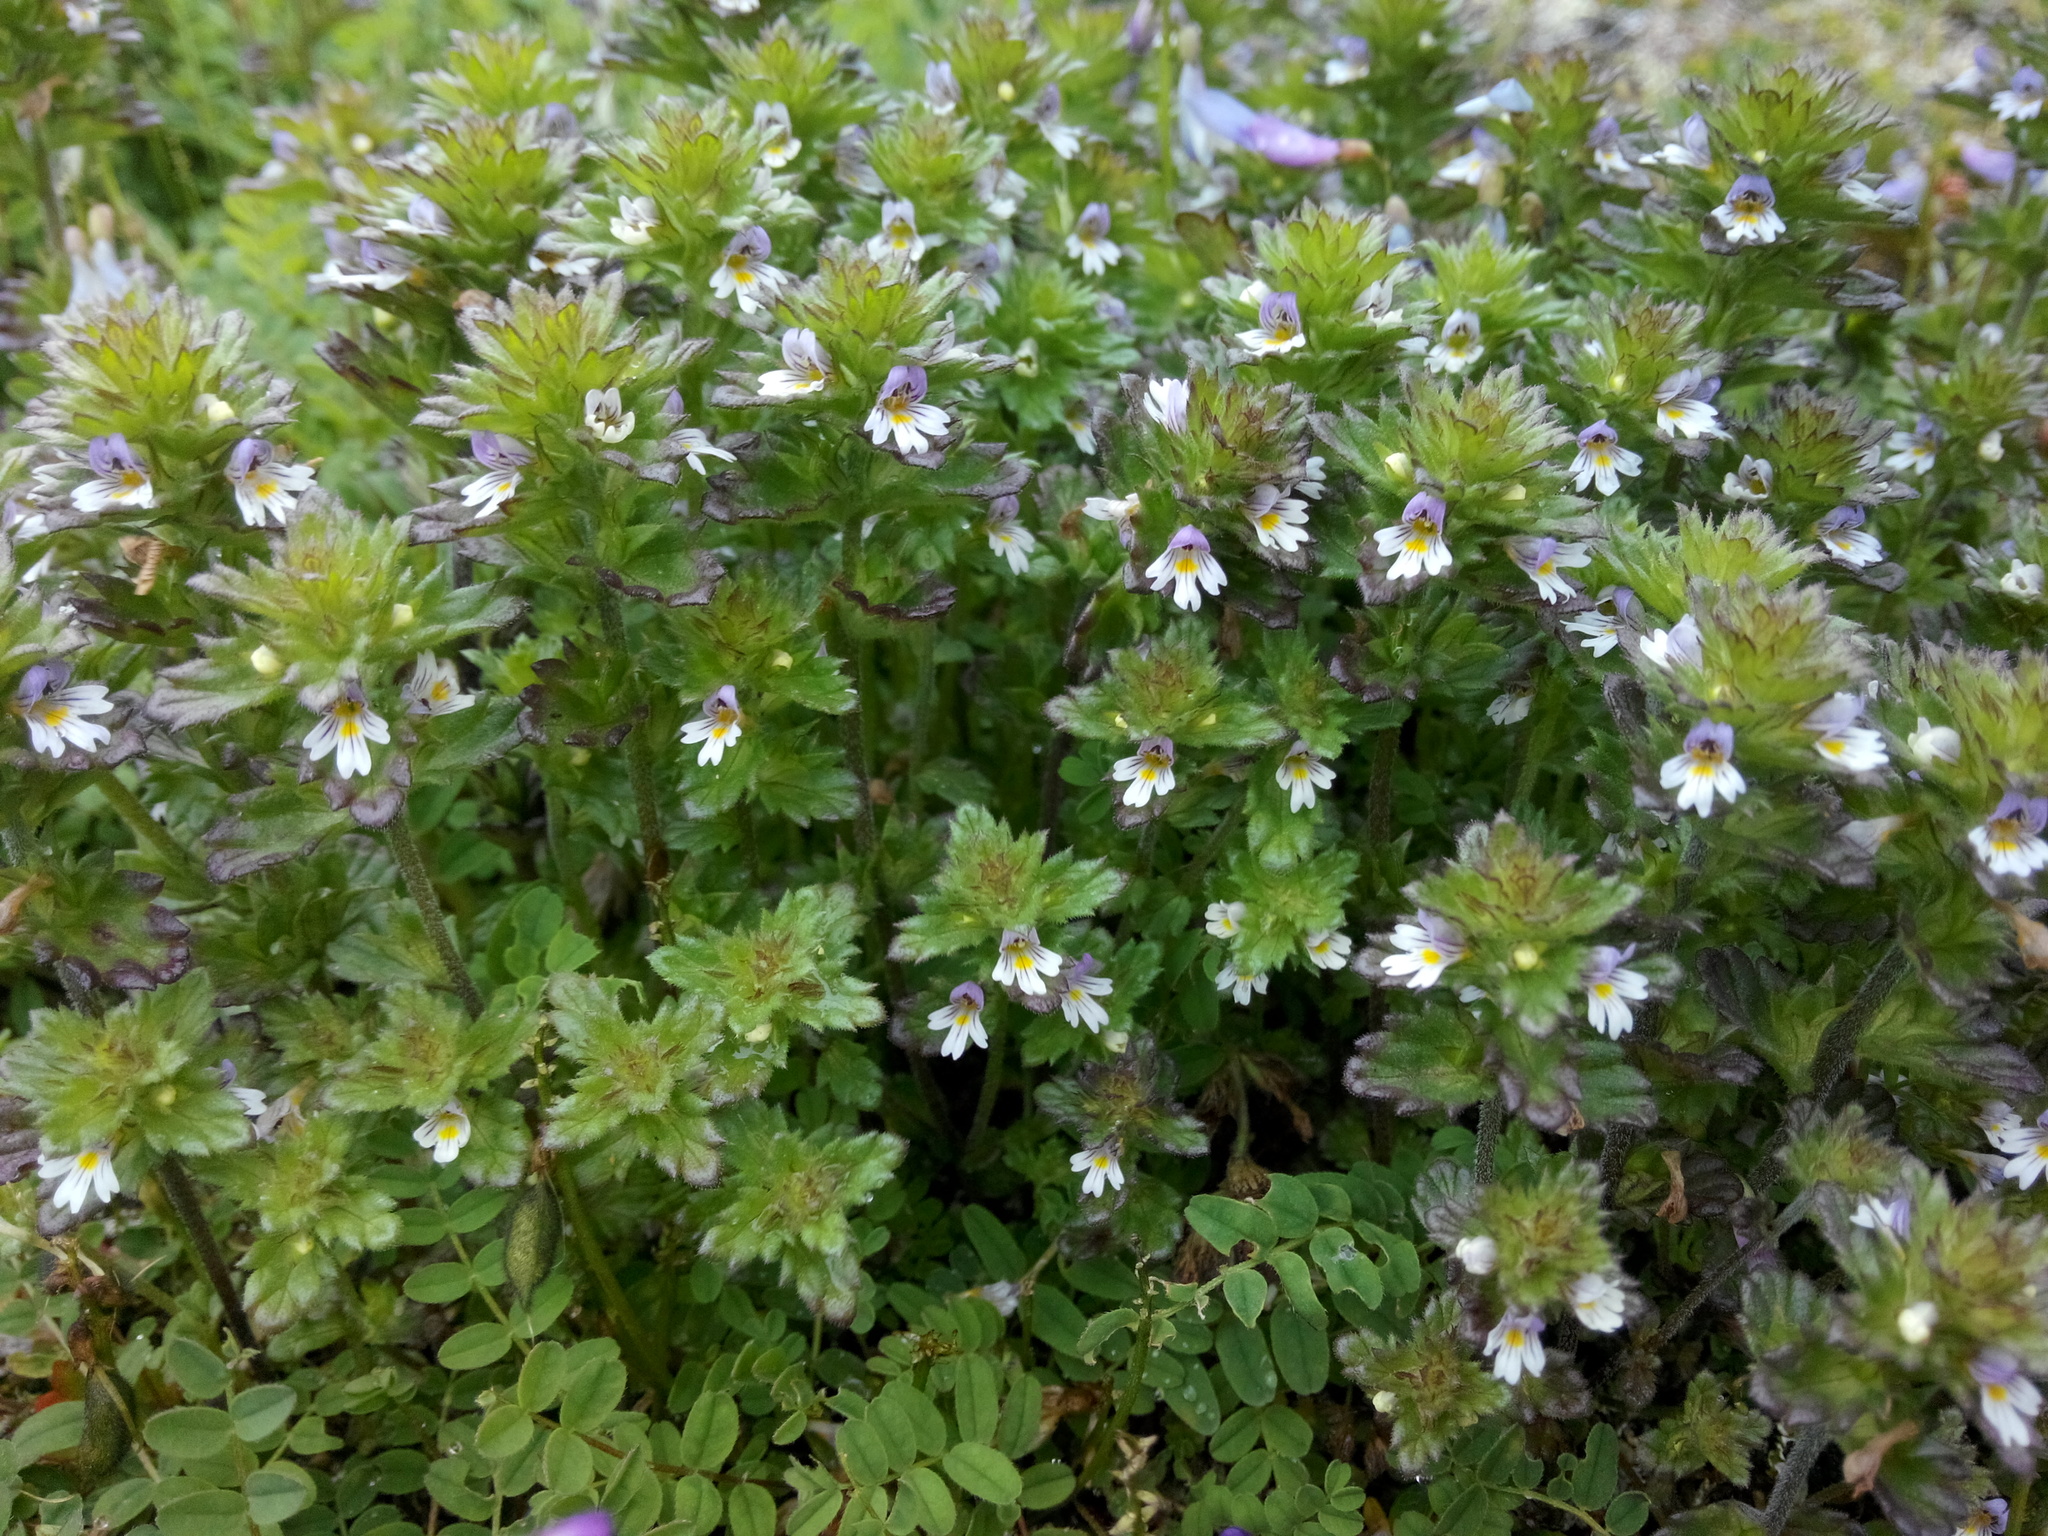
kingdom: Plantae
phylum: Tracheophyta
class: Magnoliopsida
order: Lamiales
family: Orobanchaceae
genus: Euphrasia
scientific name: Euphrasia frigida
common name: An eyebright
